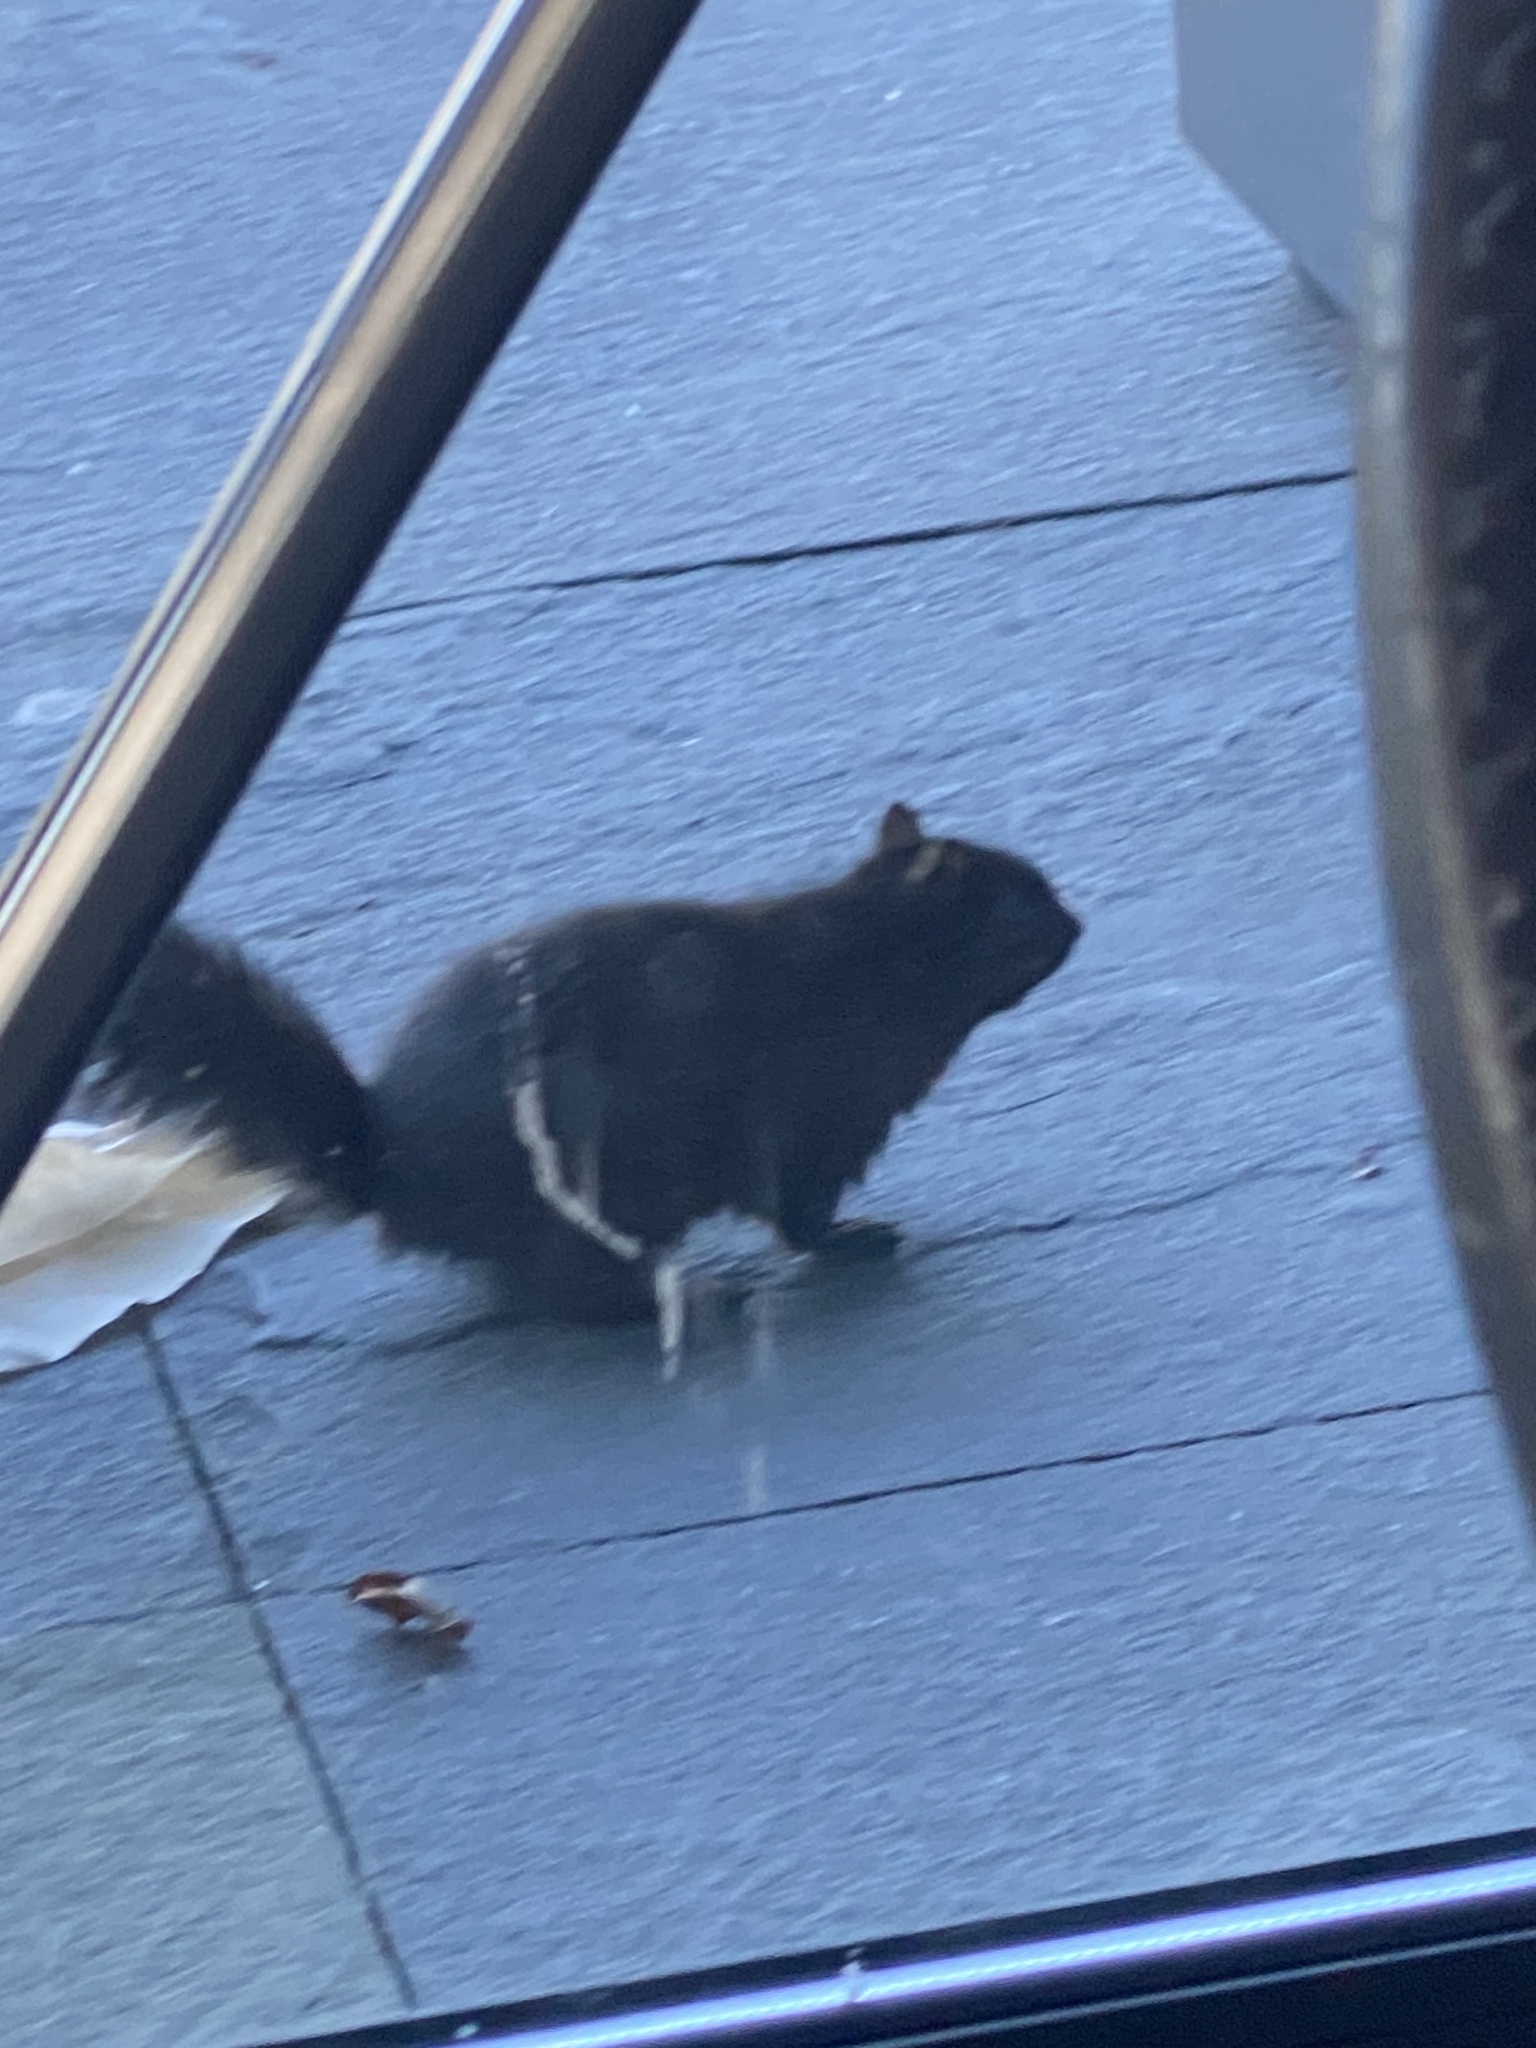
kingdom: Animalia
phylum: Chordata
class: Mammalia
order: Rodentia
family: Sciuridae
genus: Sciurus
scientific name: Sciurus carolinensis
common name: Eastern gray squirrel
